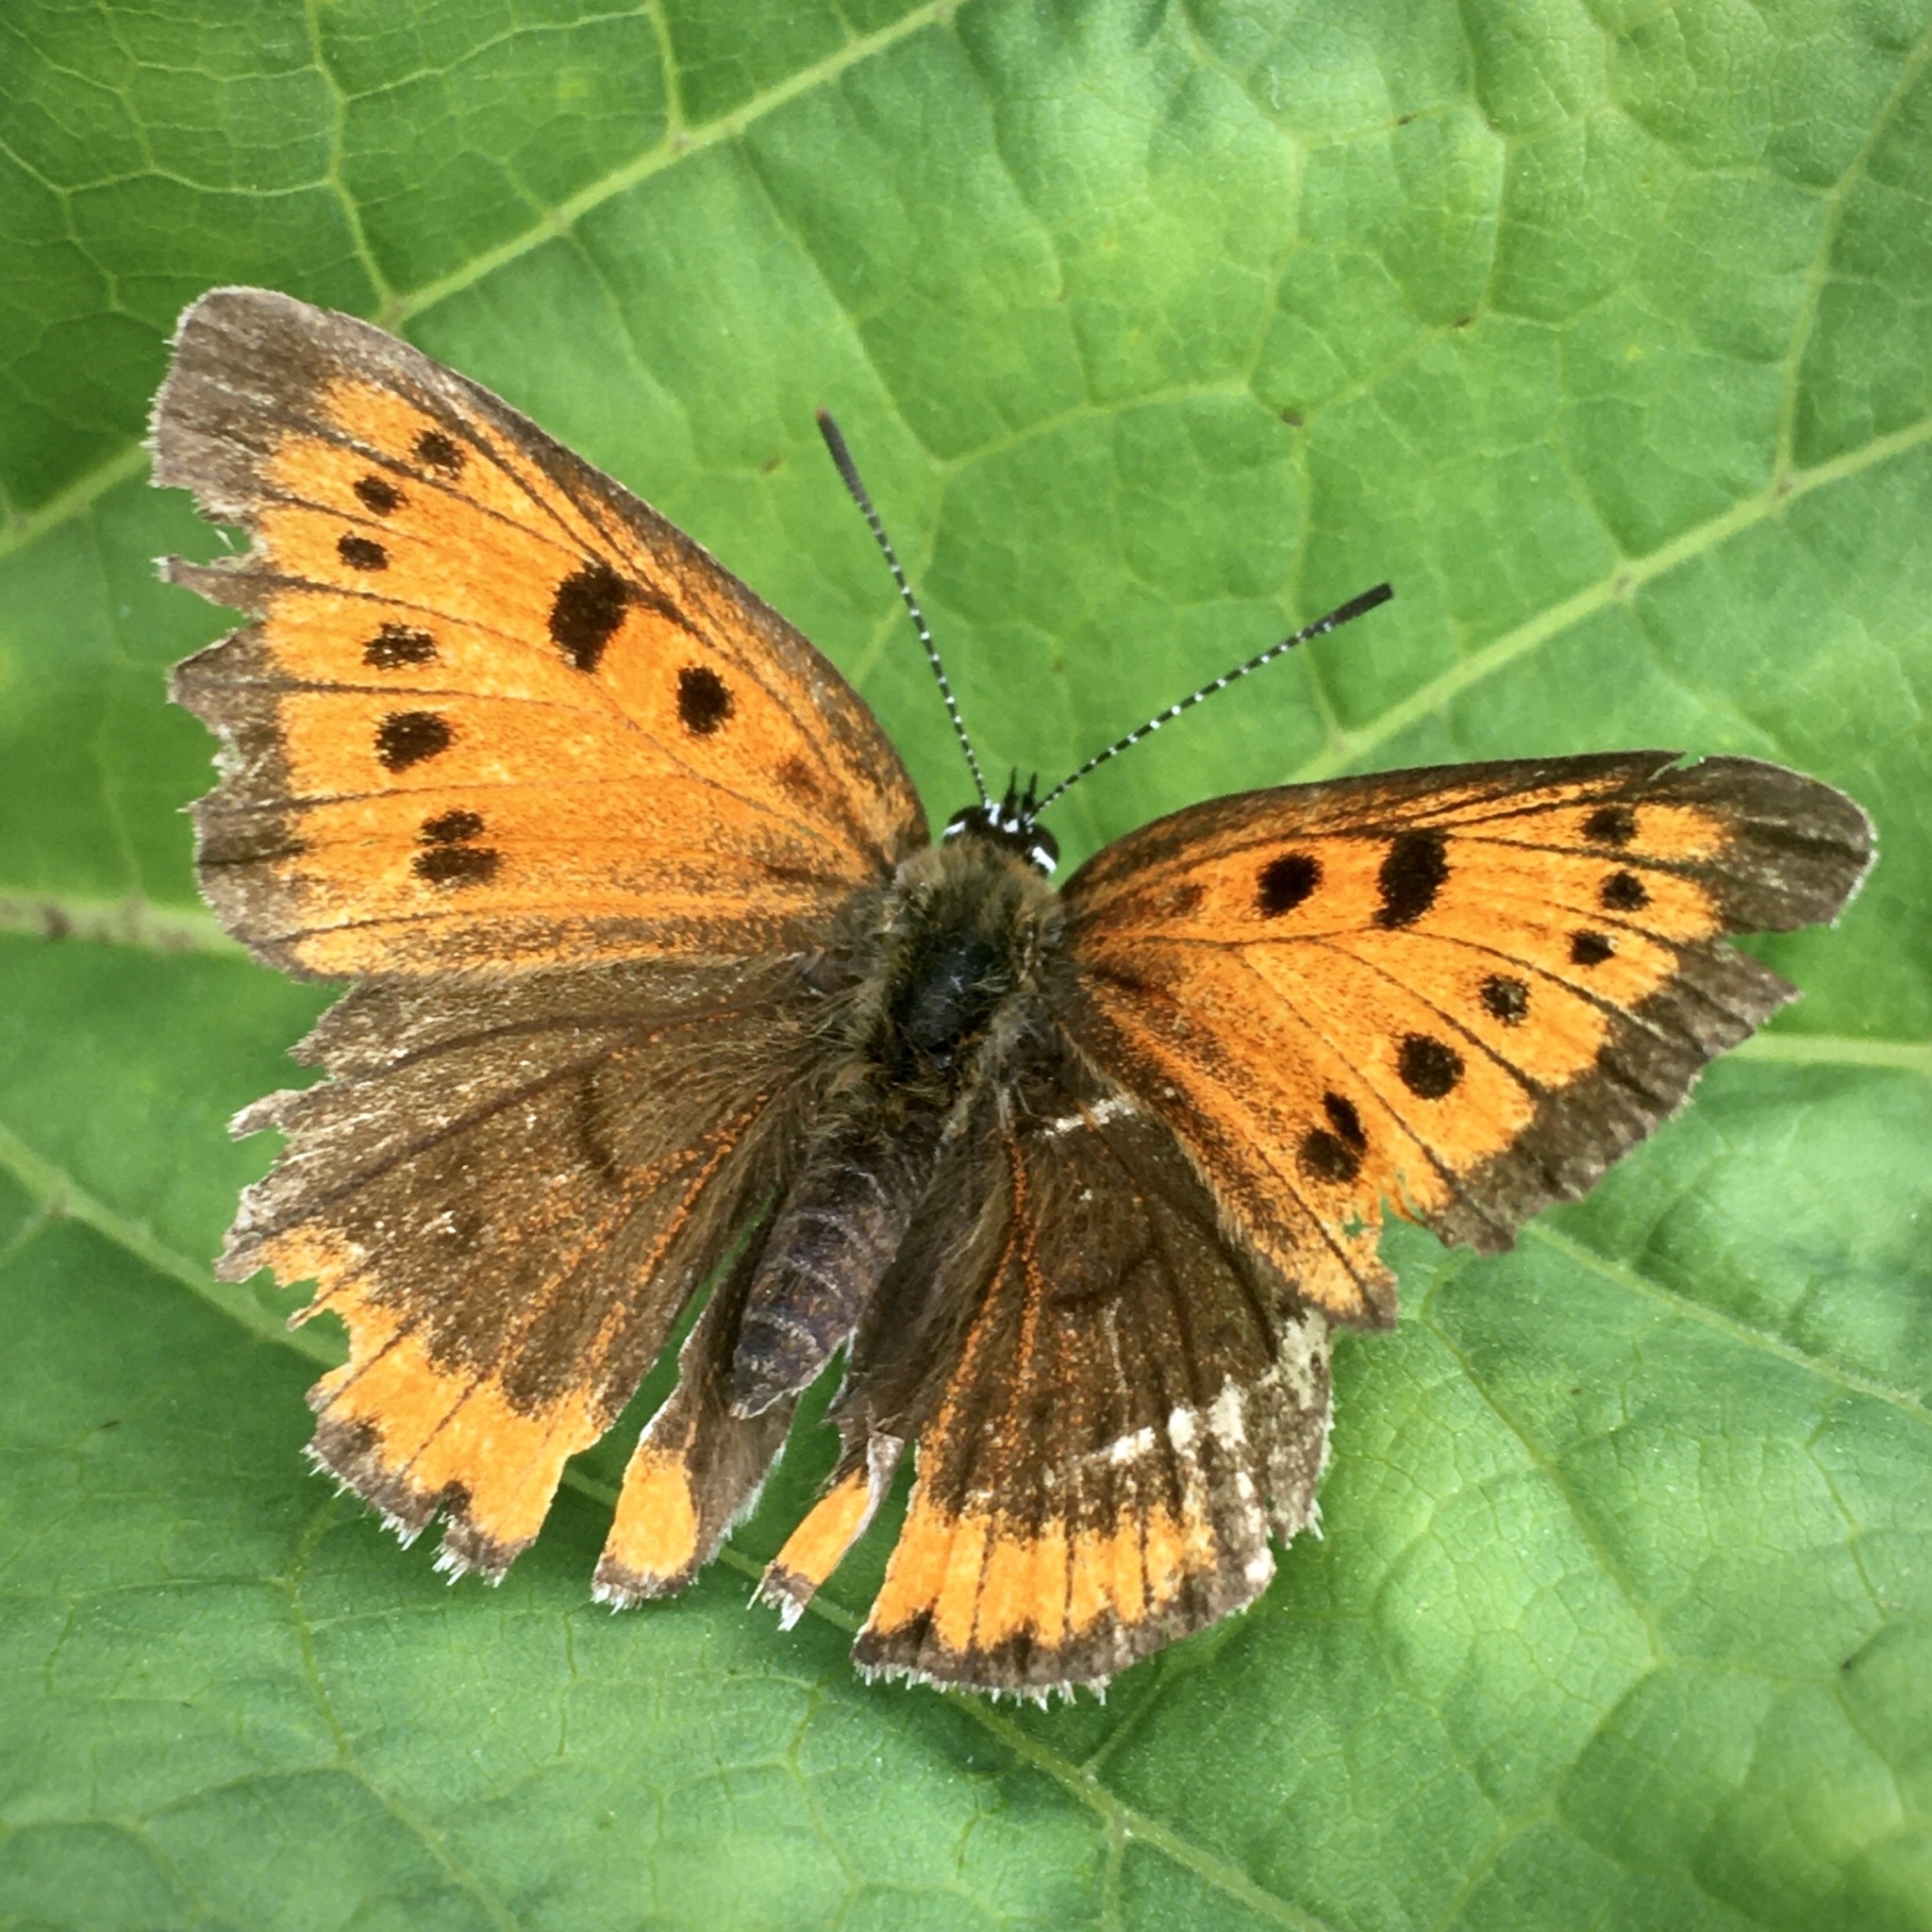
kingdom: Animalia
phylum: Arthropoda
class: Insecta
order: Lepidoptera
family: Lycaenidae
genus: Lycaena
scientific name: Lycaena dispar
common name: Large copper
